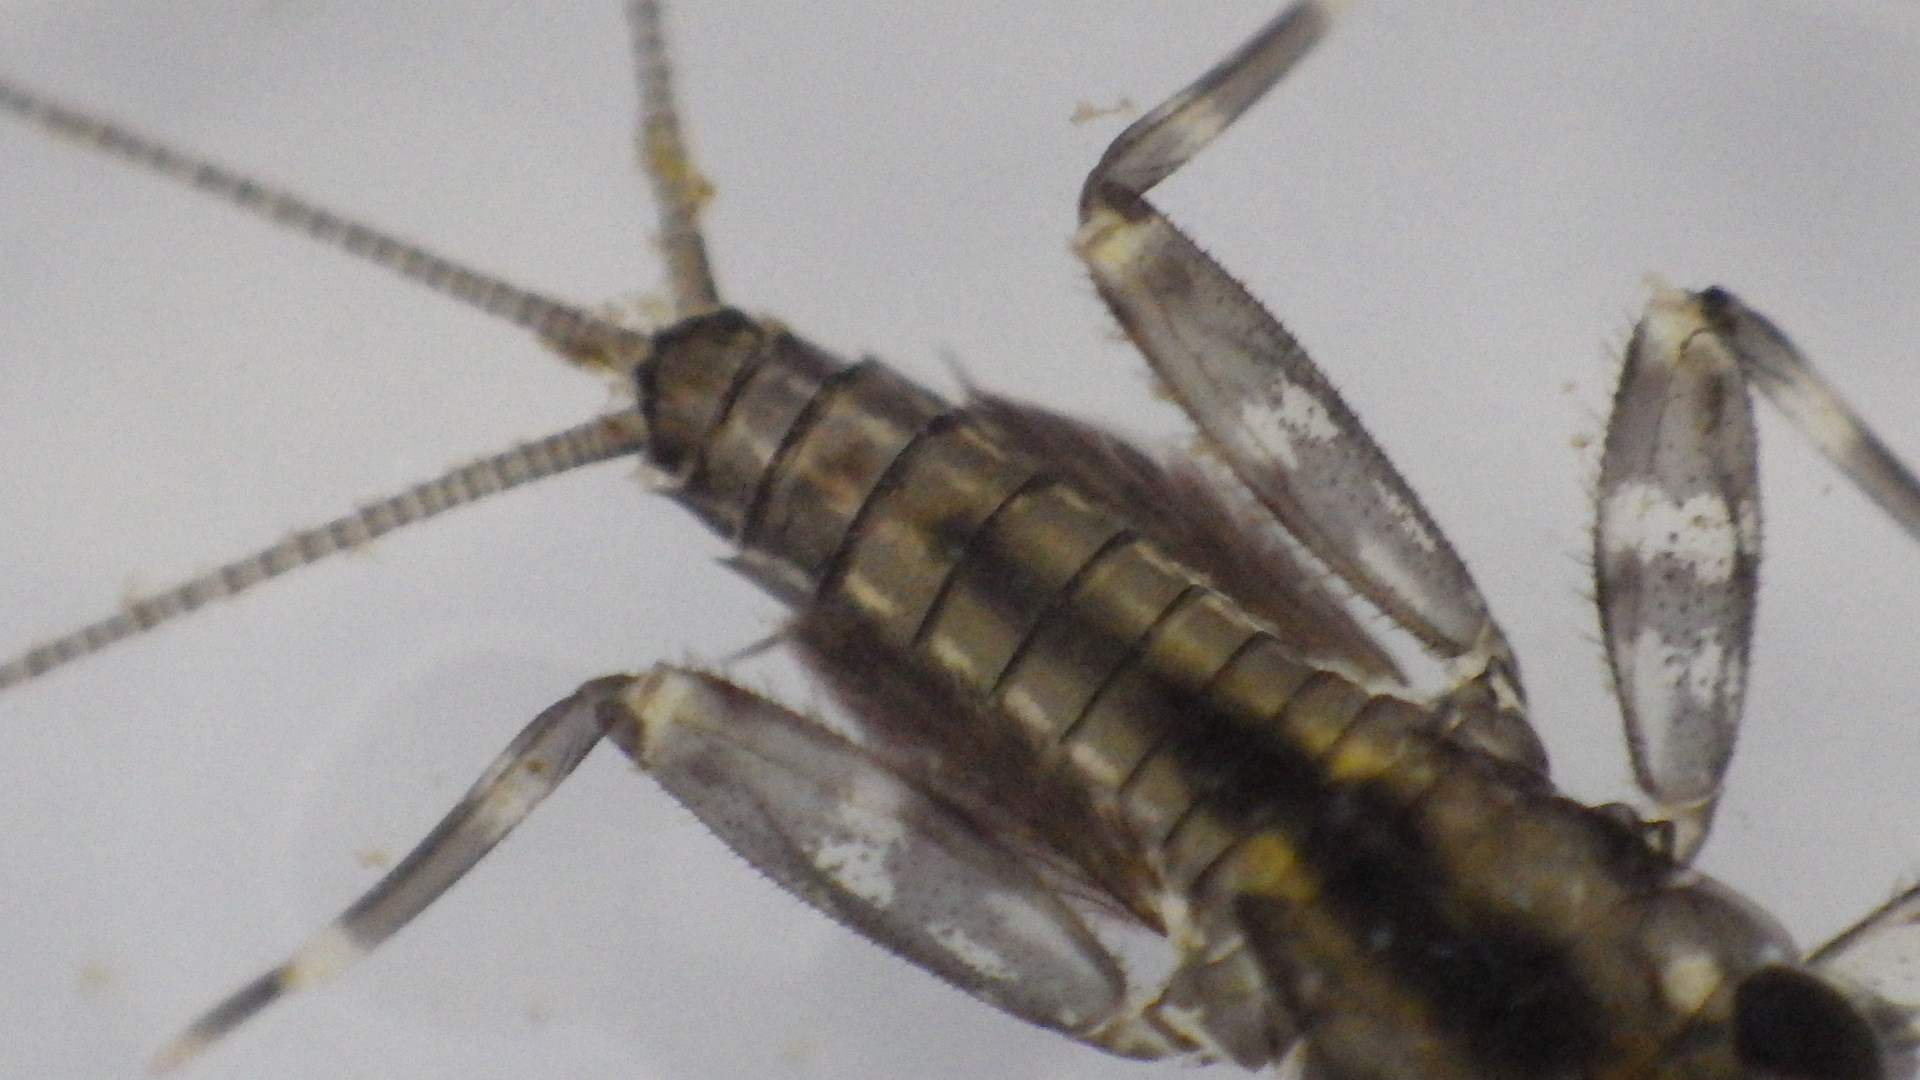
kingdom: Animalia
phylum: Arthropoda
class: Insecta
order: Ephemeroptera
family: Heptageniidae
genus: Stenacron
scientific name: Stenacron carolina
